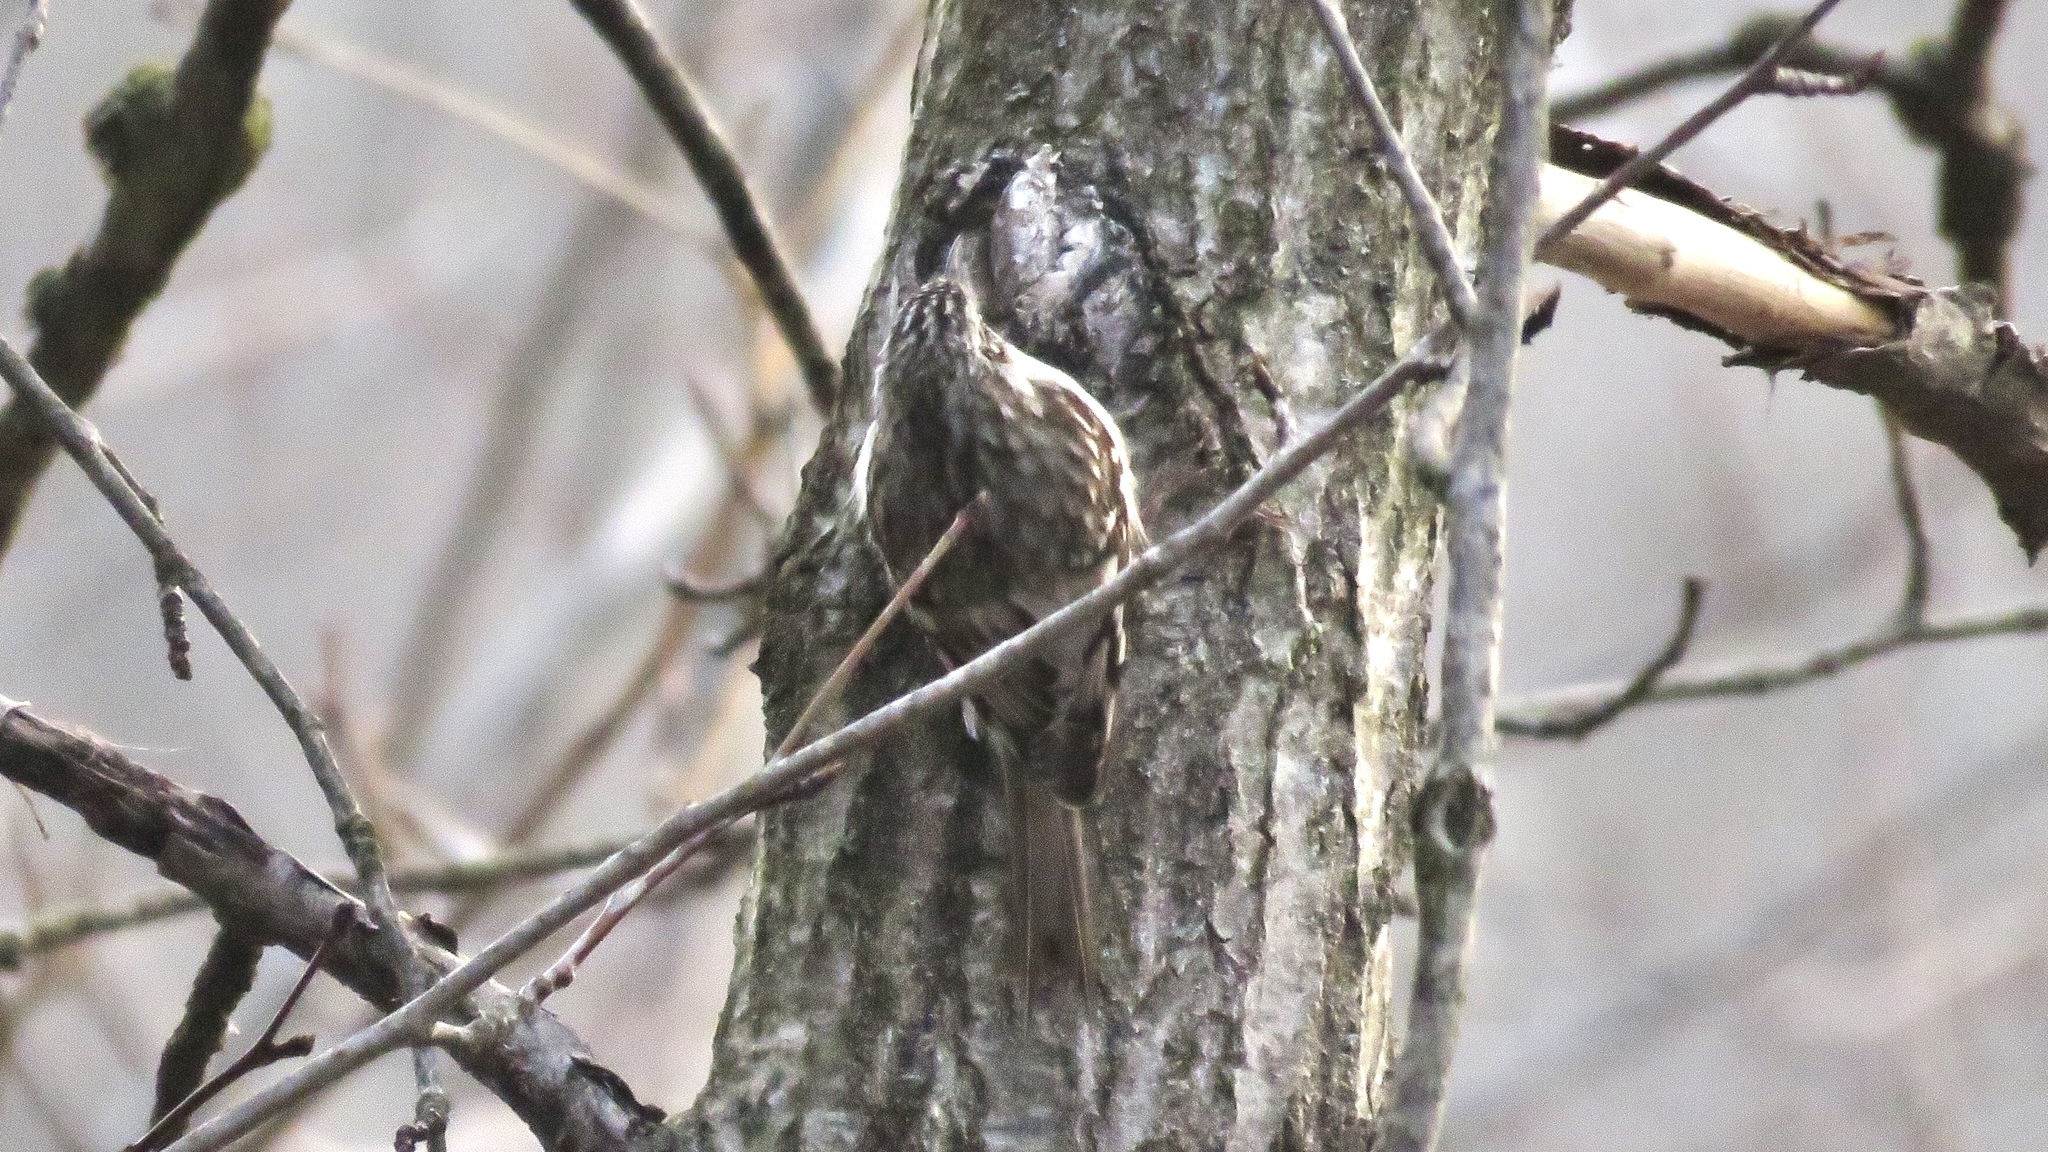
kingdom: Animalia
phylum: Chordata
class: Aves
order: Passeriformes
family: Certhiidae
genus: Certhia
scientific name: Certhia americana
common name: Brown creeper
